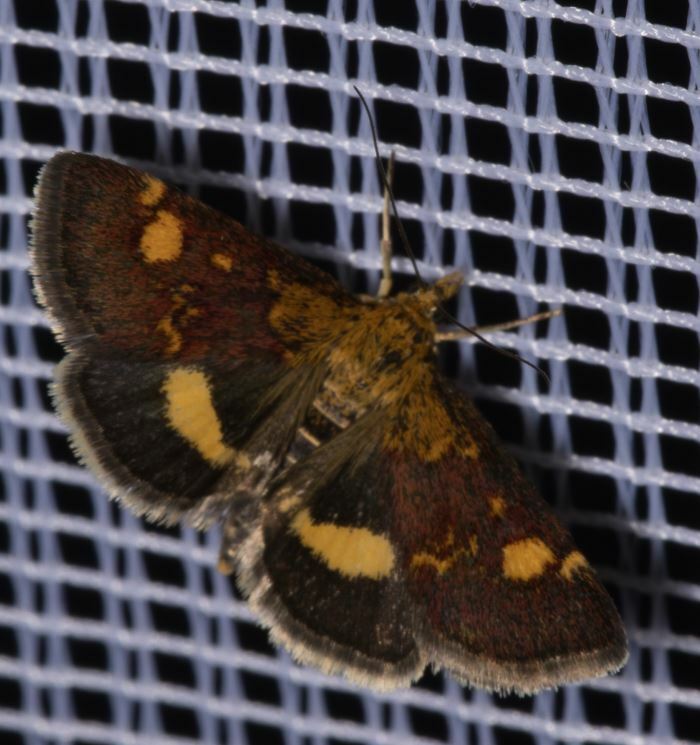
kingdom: Animalia
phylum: Arthropoda
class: Insecta
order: Lepidoptera
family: Crambidae
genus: Pyrausta
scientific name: Pyrausta aurata
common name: Small purple & gold
